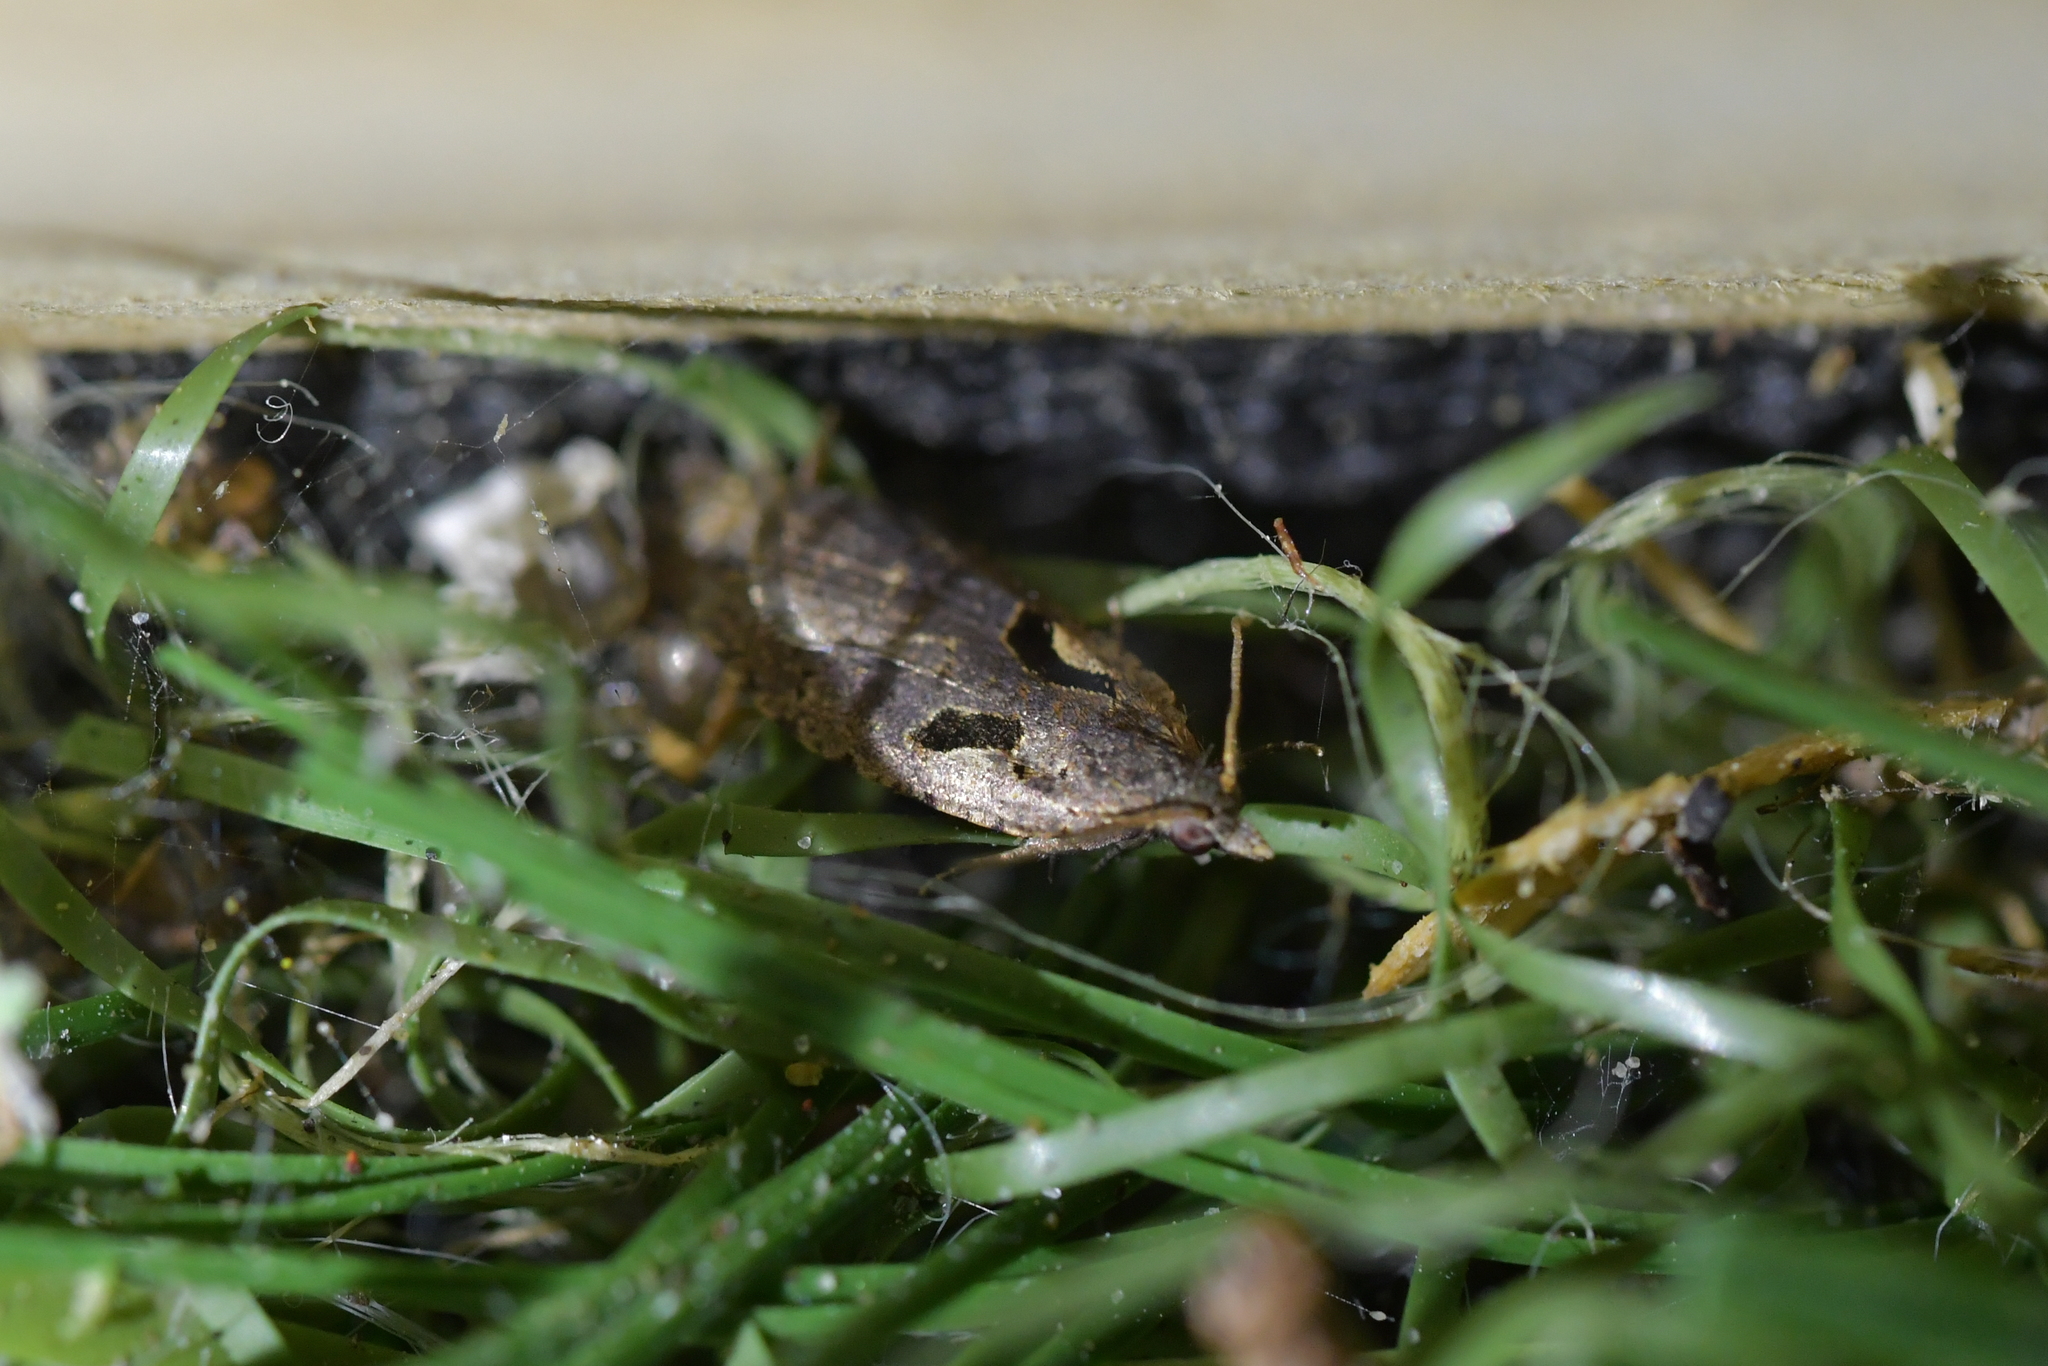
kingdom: Animalia
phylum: Arthropoda
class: Insecta
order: Lepidoptera
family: Tortricidae
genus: Cnephasia
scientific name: Cnephasia jactatana
